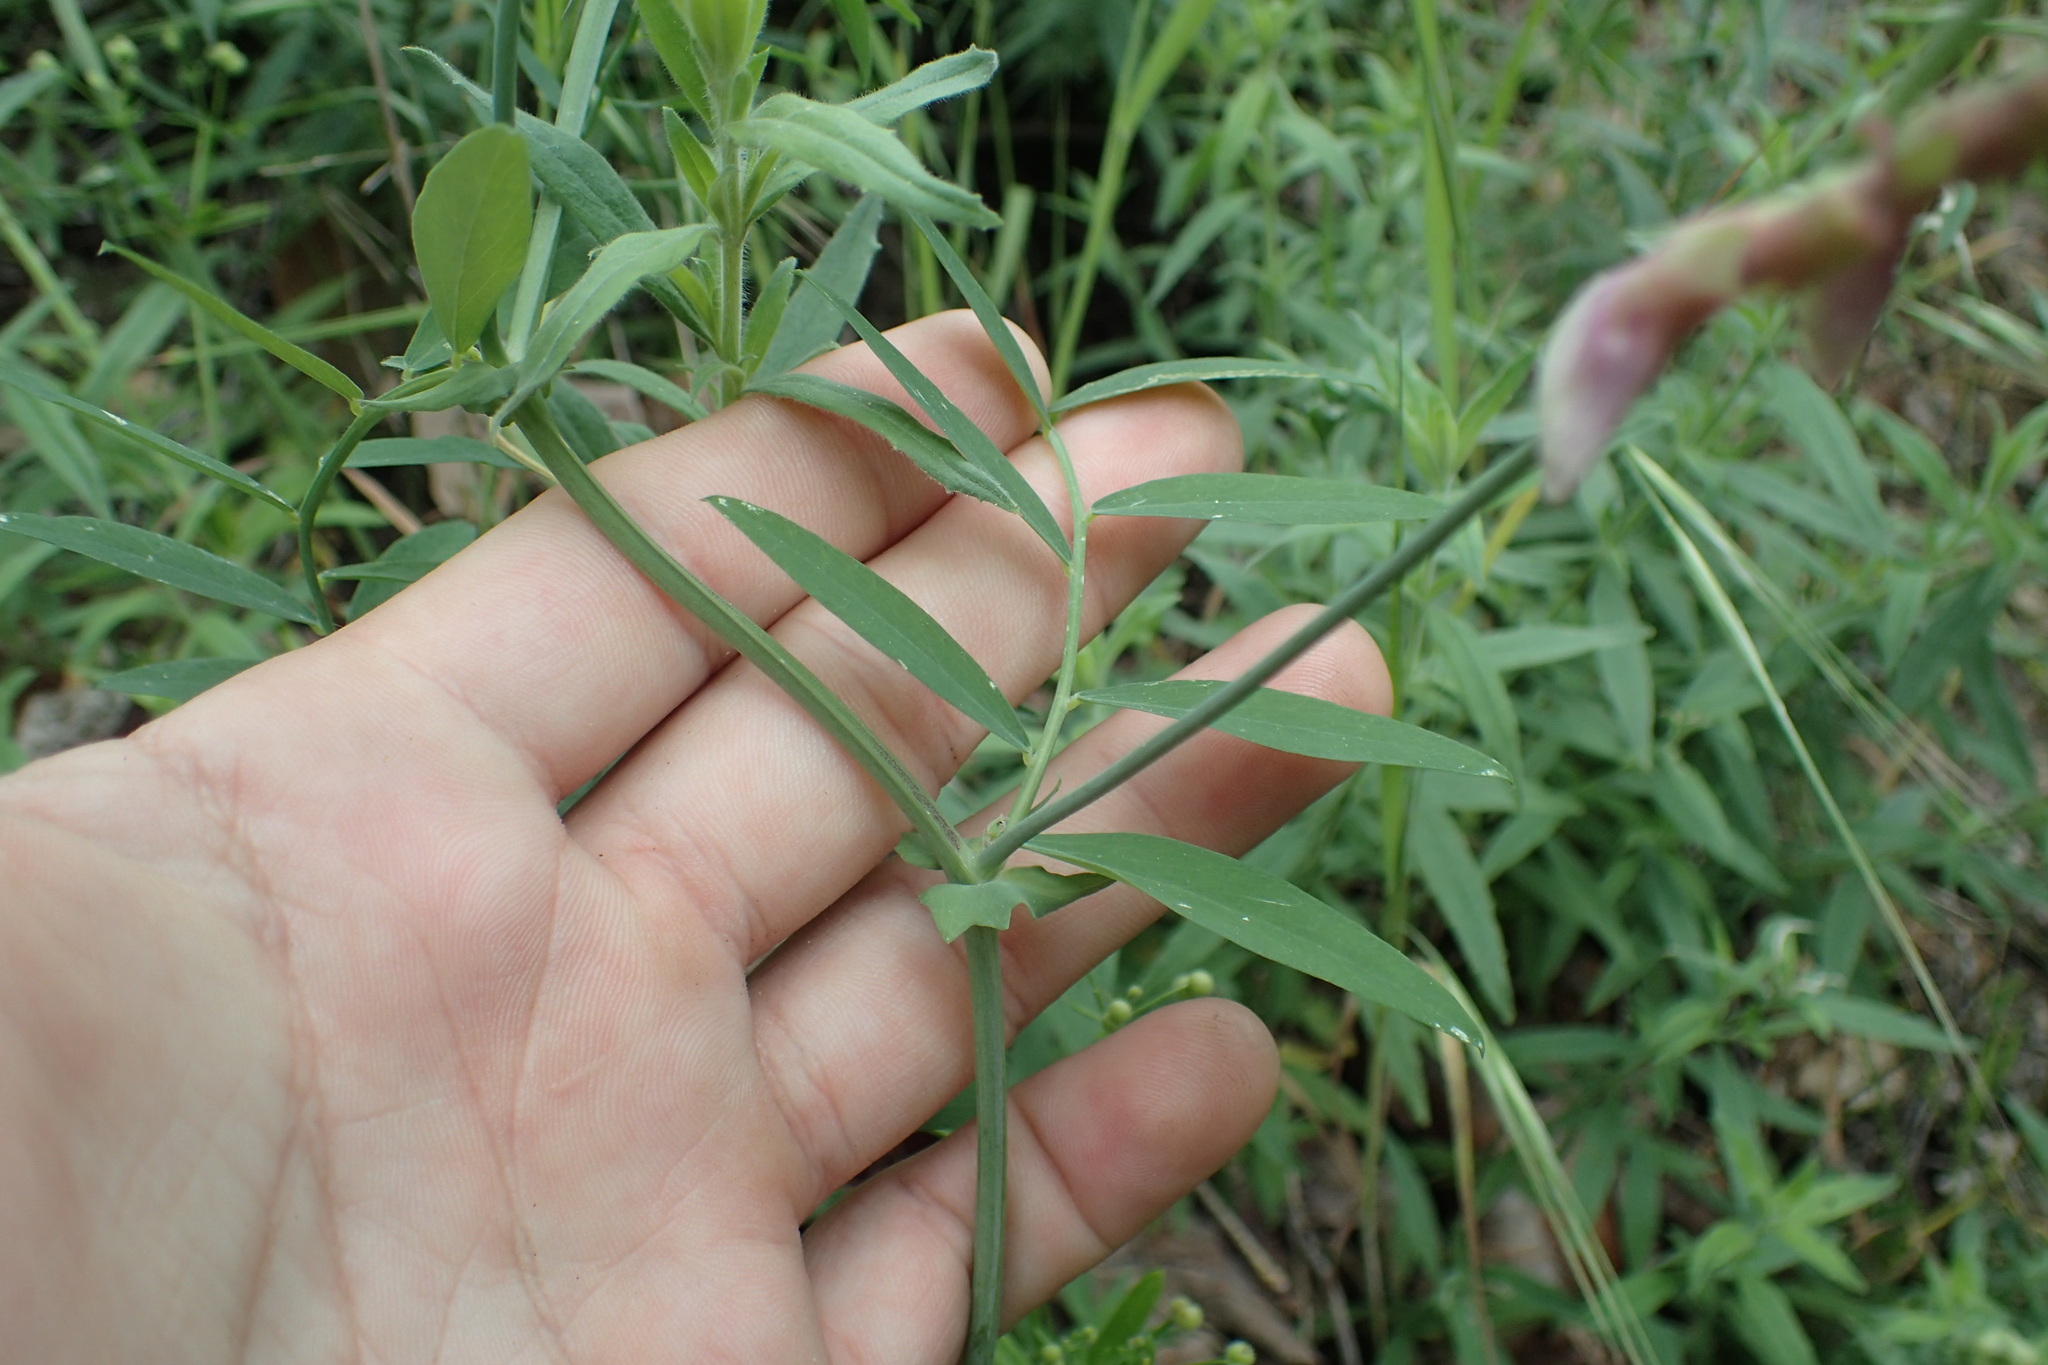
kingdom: Plantae
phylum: Tracheophyta
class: Magnoliopsida
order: Fabales
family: Fabaceae
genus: Lathyrus
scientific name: Lathyrus vestitus
